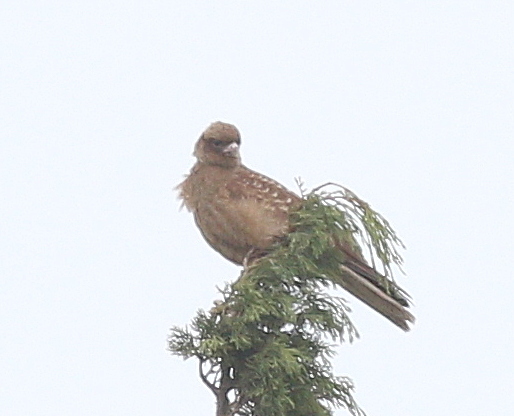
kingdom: Animalia
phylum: Chordata
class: Aves
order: Falconiformes
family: Falconidae
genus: Daptrius
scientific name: Daptrius
